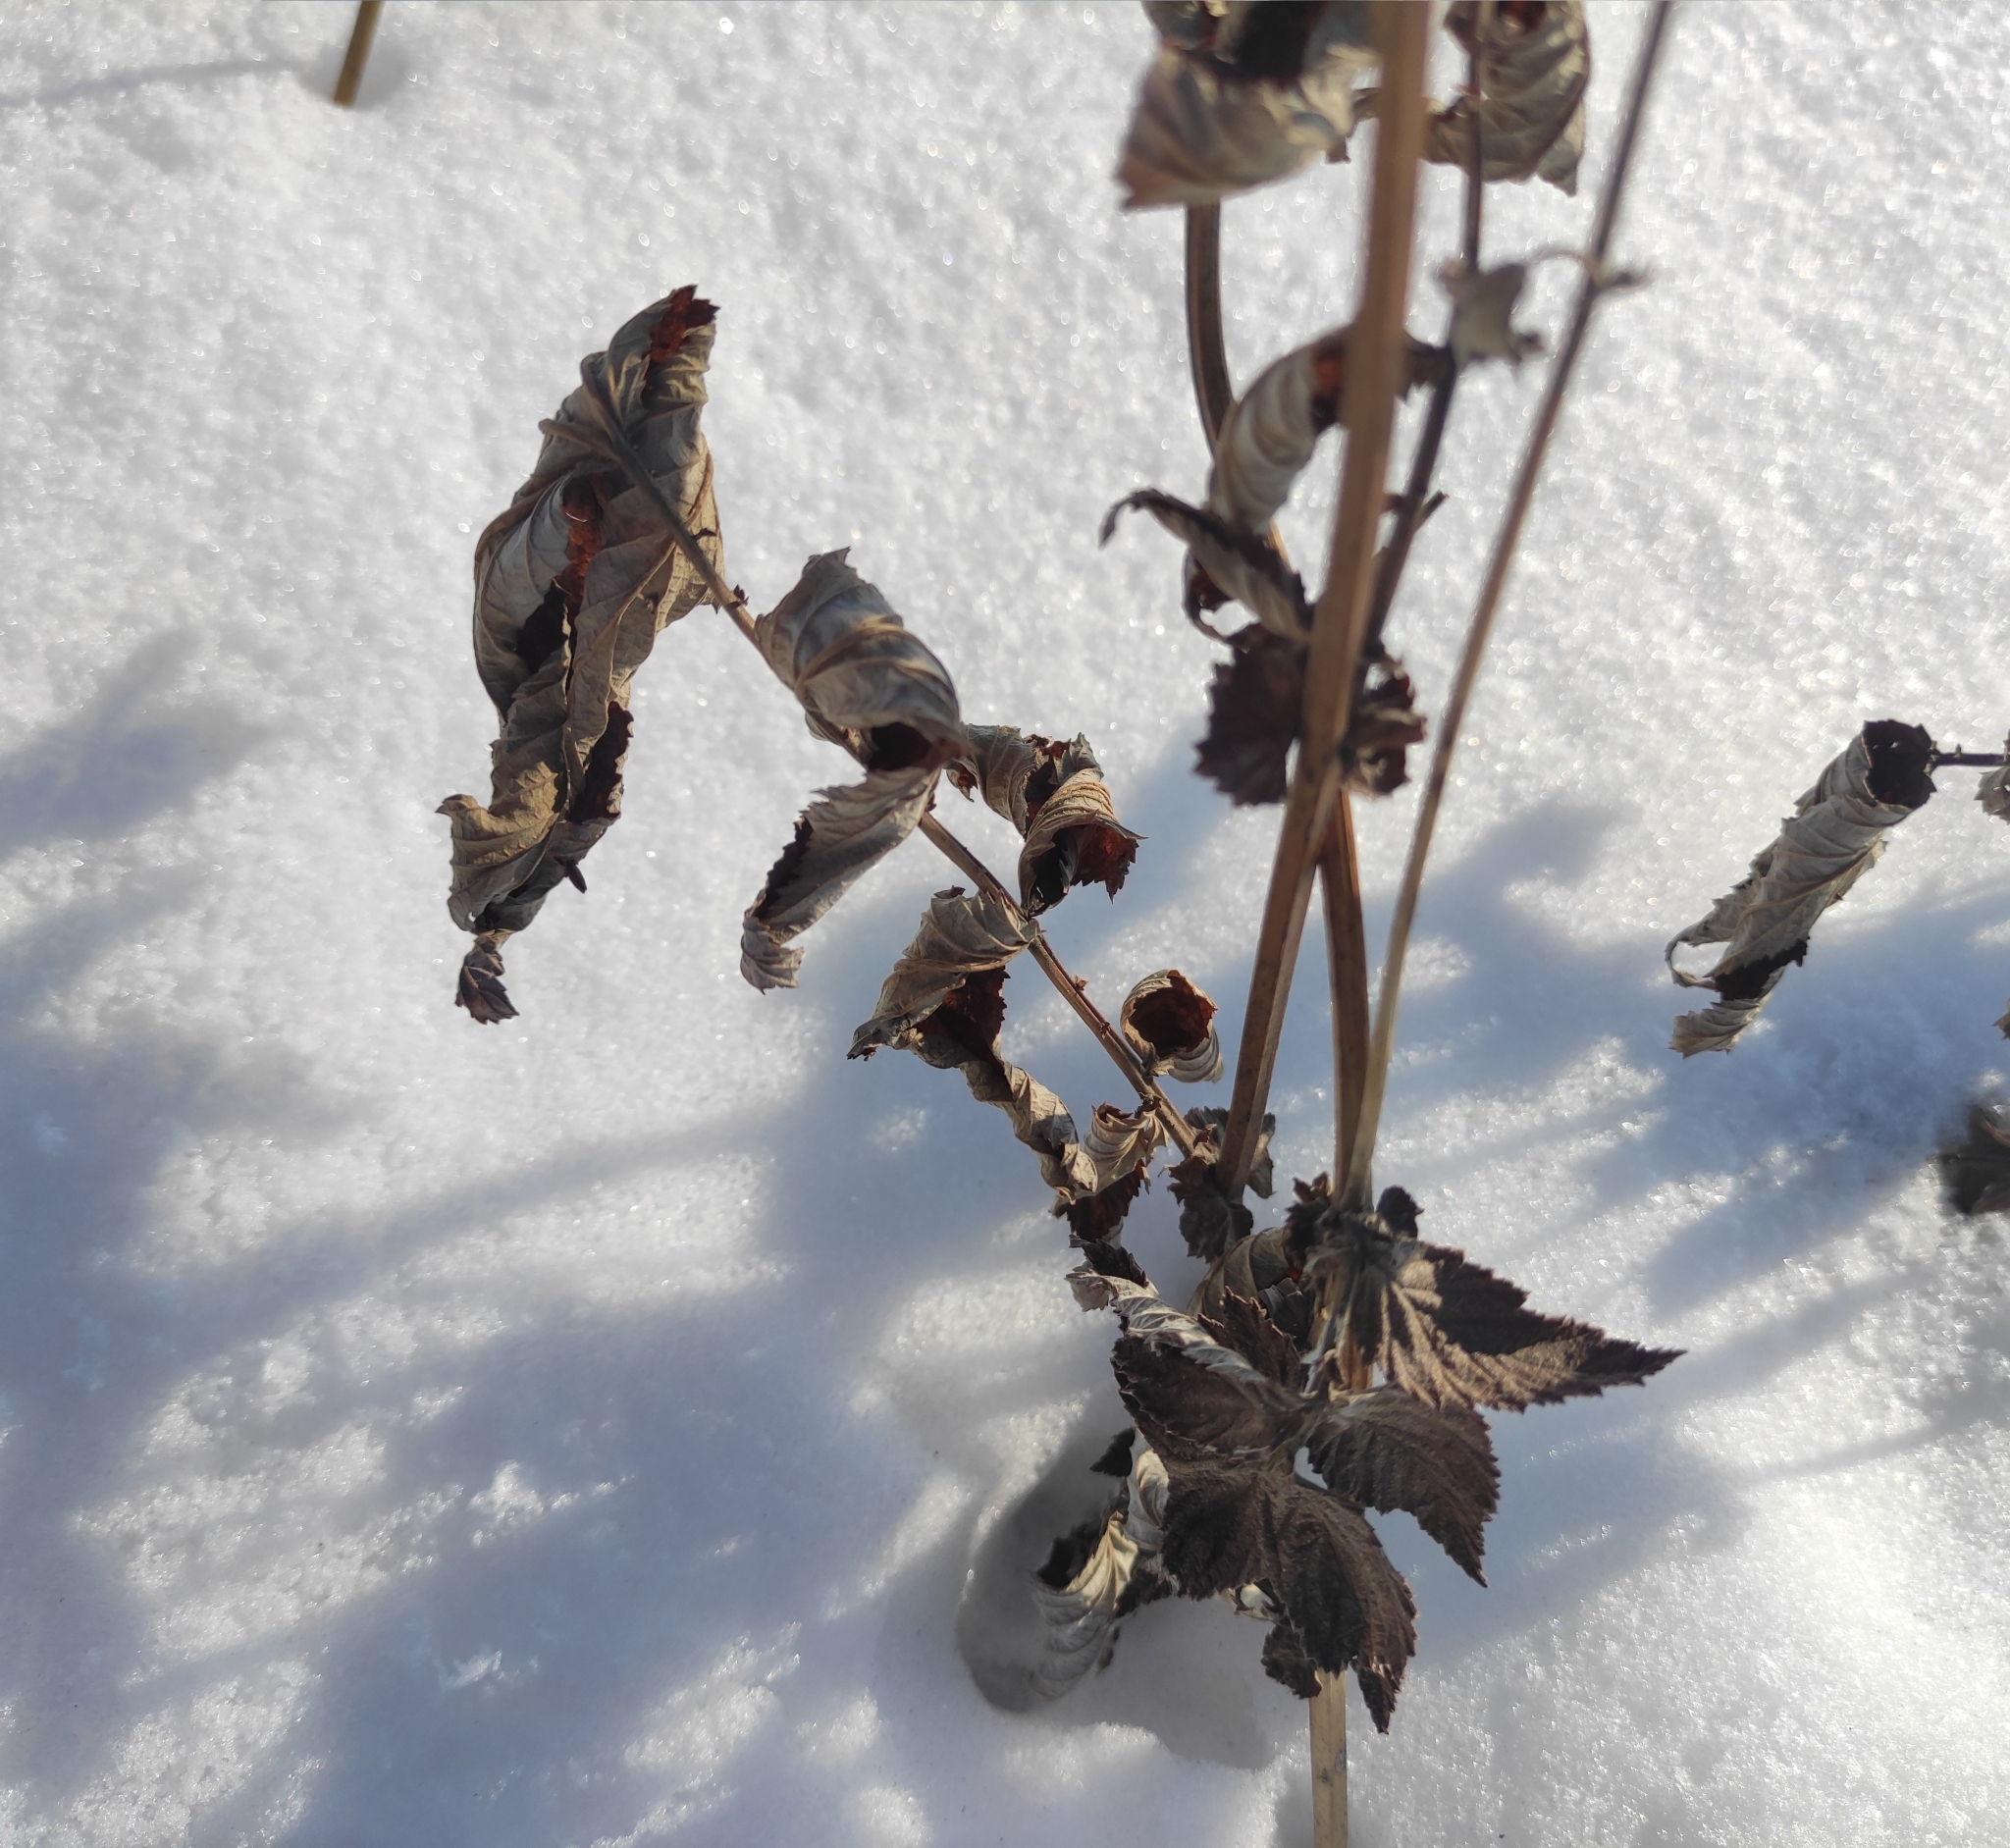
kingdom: Plantae
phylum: Tracheophyta
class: Magnoliopsida
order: Rosales
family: Rosaceae
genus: Filipendula
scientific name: Filipendula ulmaria
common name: Meadowsweet
